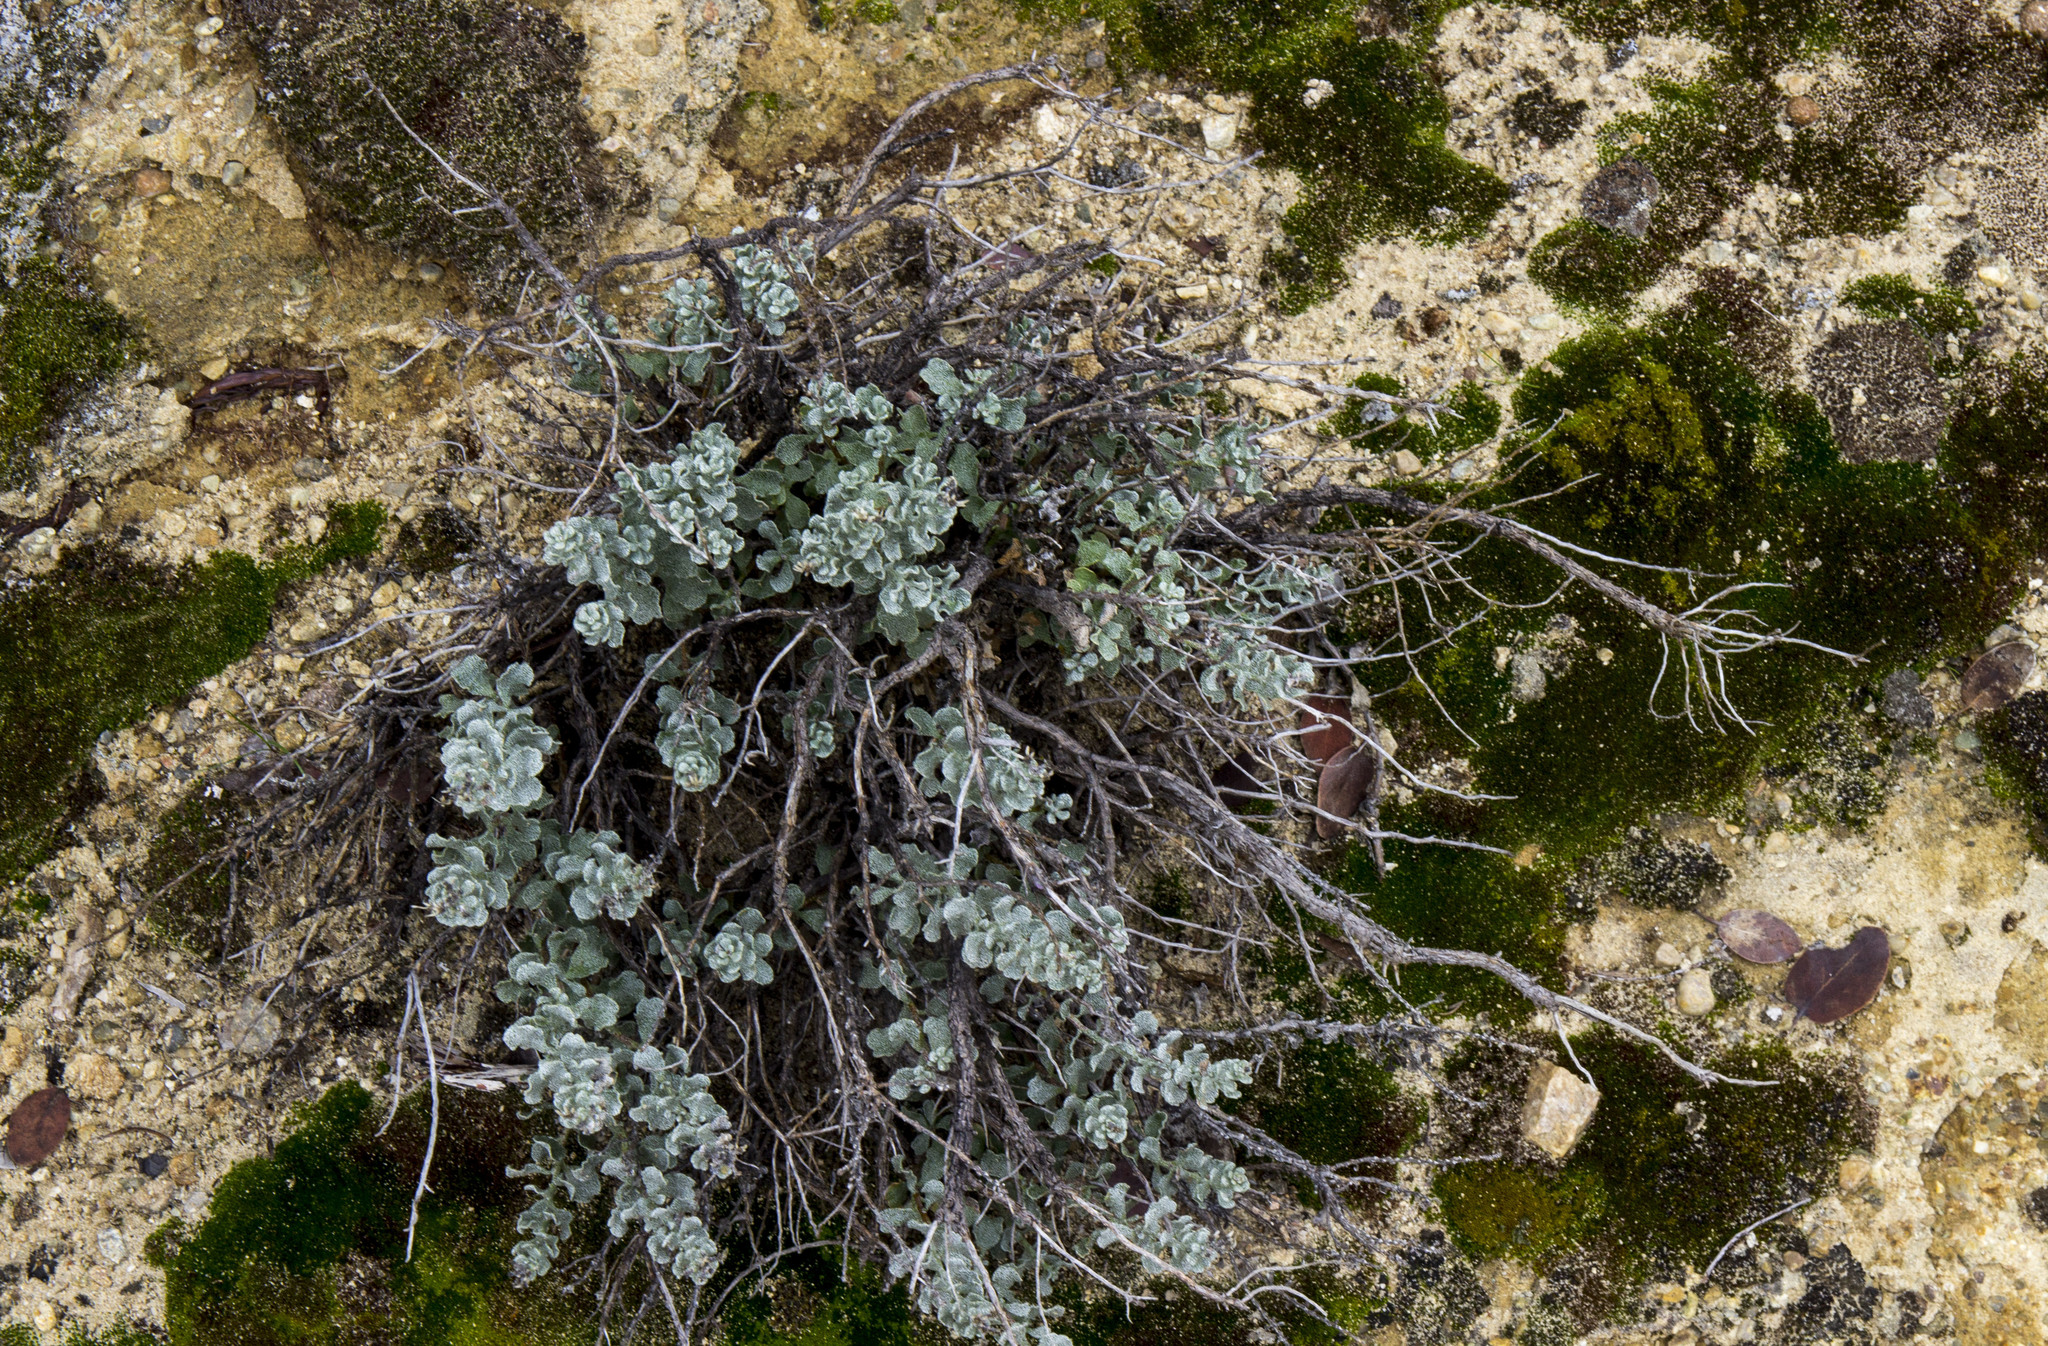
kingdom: Plantae
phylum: Tracheophyta
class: Magnoliopsida
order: Asterales
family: Asteraceae
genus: Ericameria
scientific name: Ericameria cuneata
